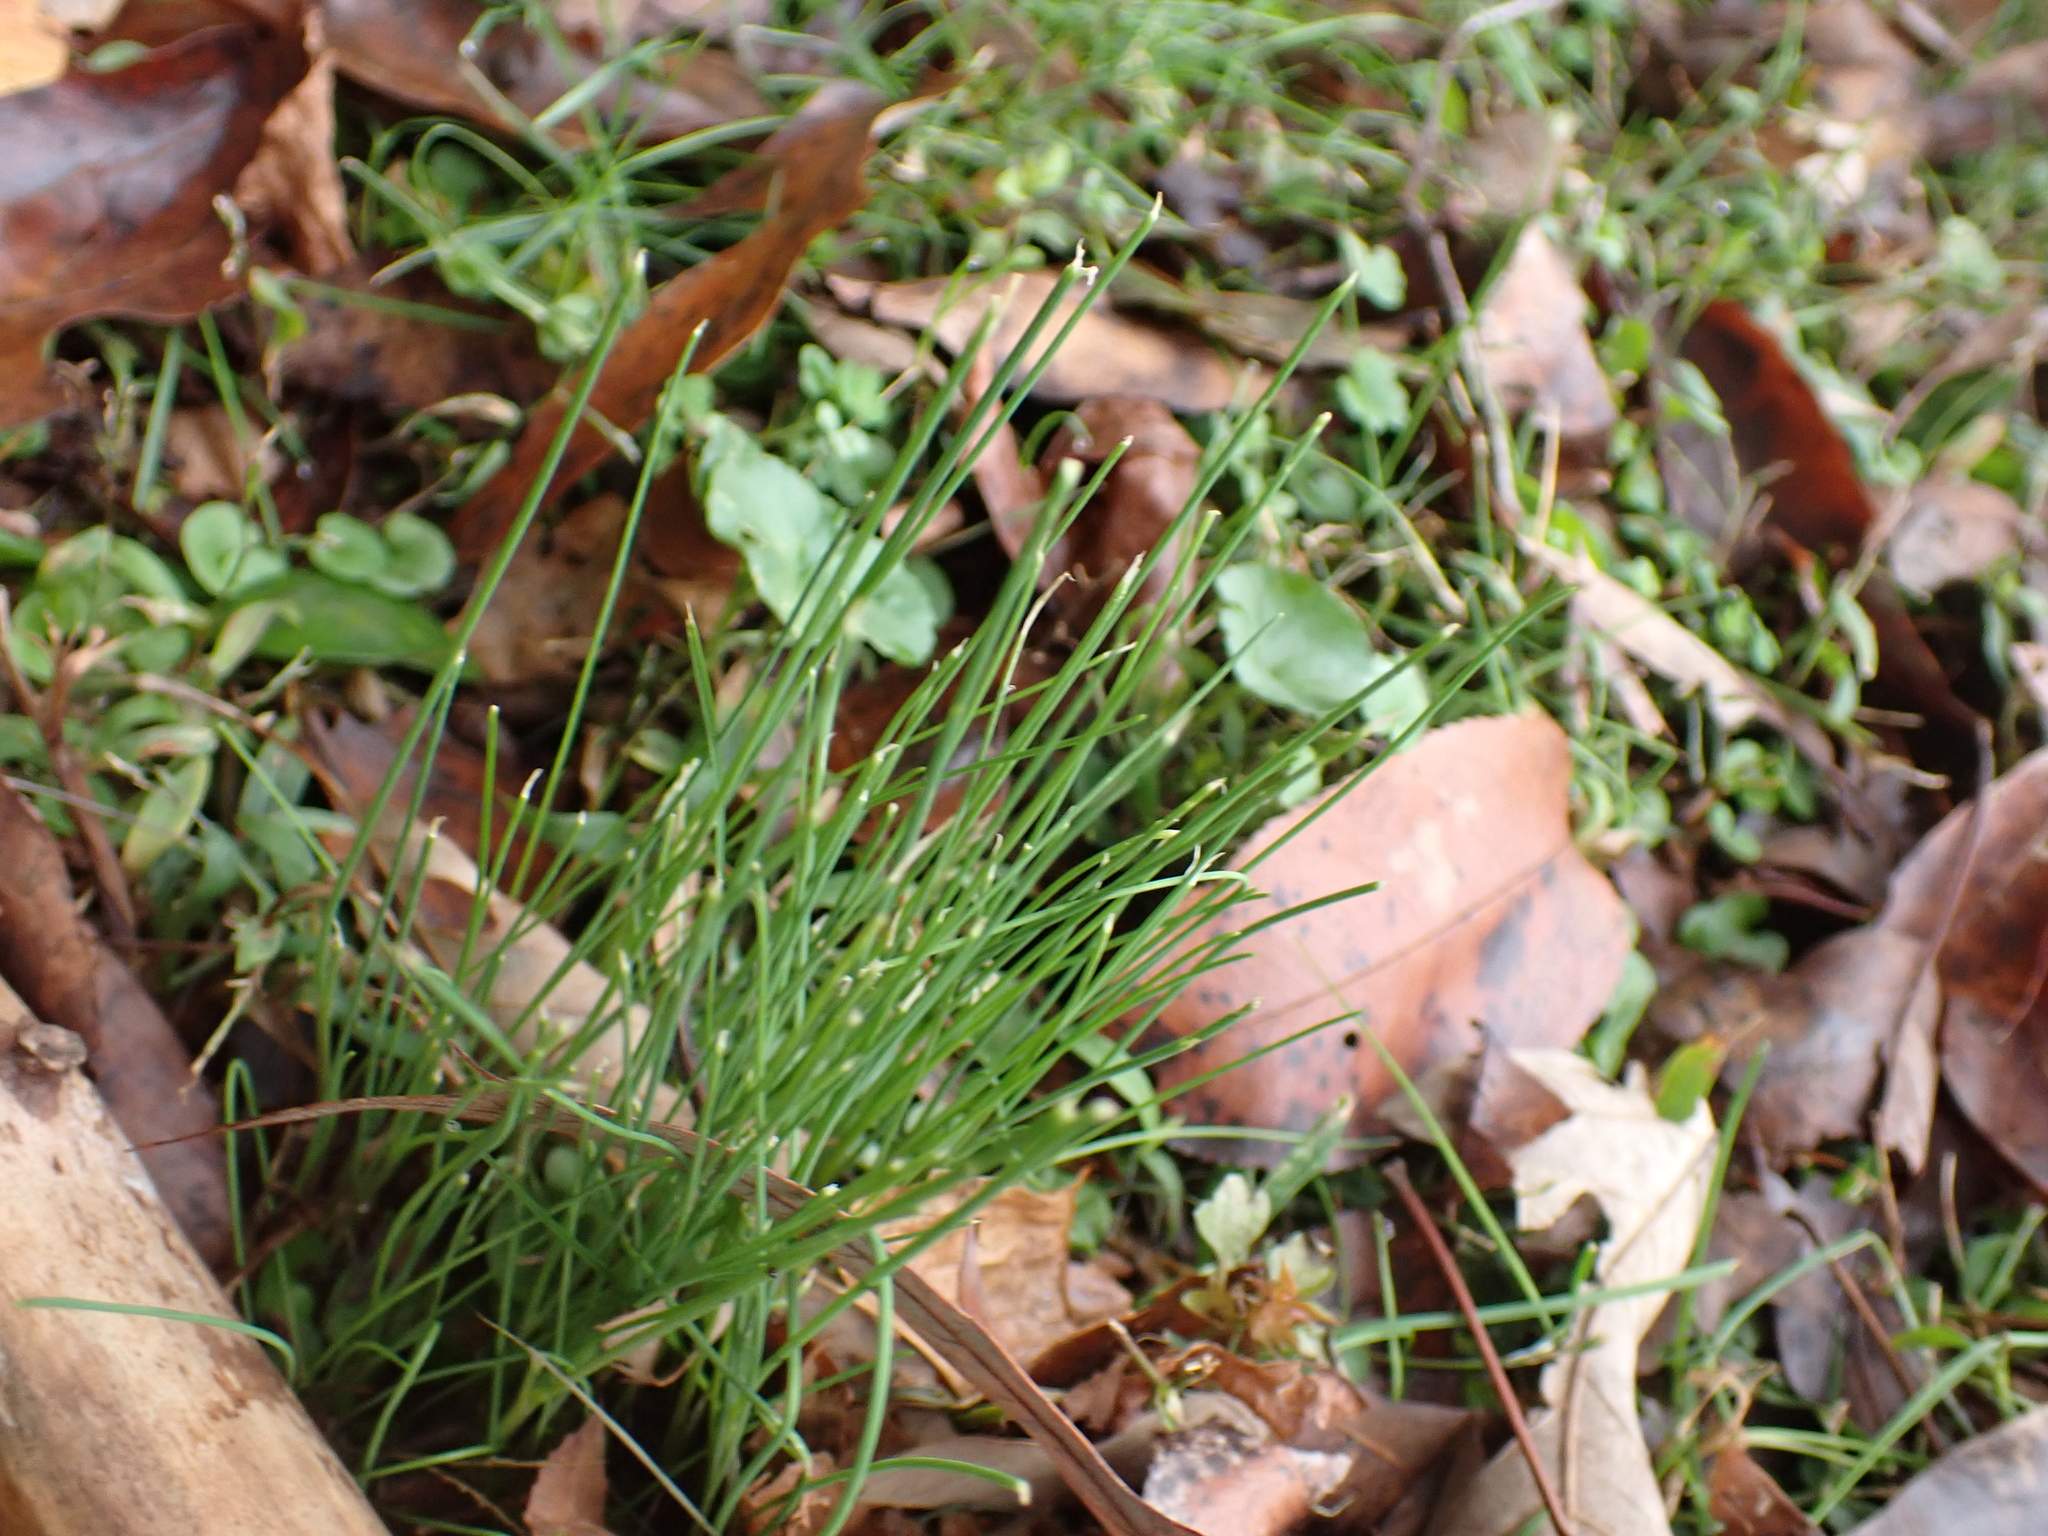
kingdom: Plantae
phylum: Tracheophyta
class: Liliopsida
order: Asparagales
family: Amaryllidaceae
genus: Allium
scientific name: Allium vineale
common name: Crow garlic
